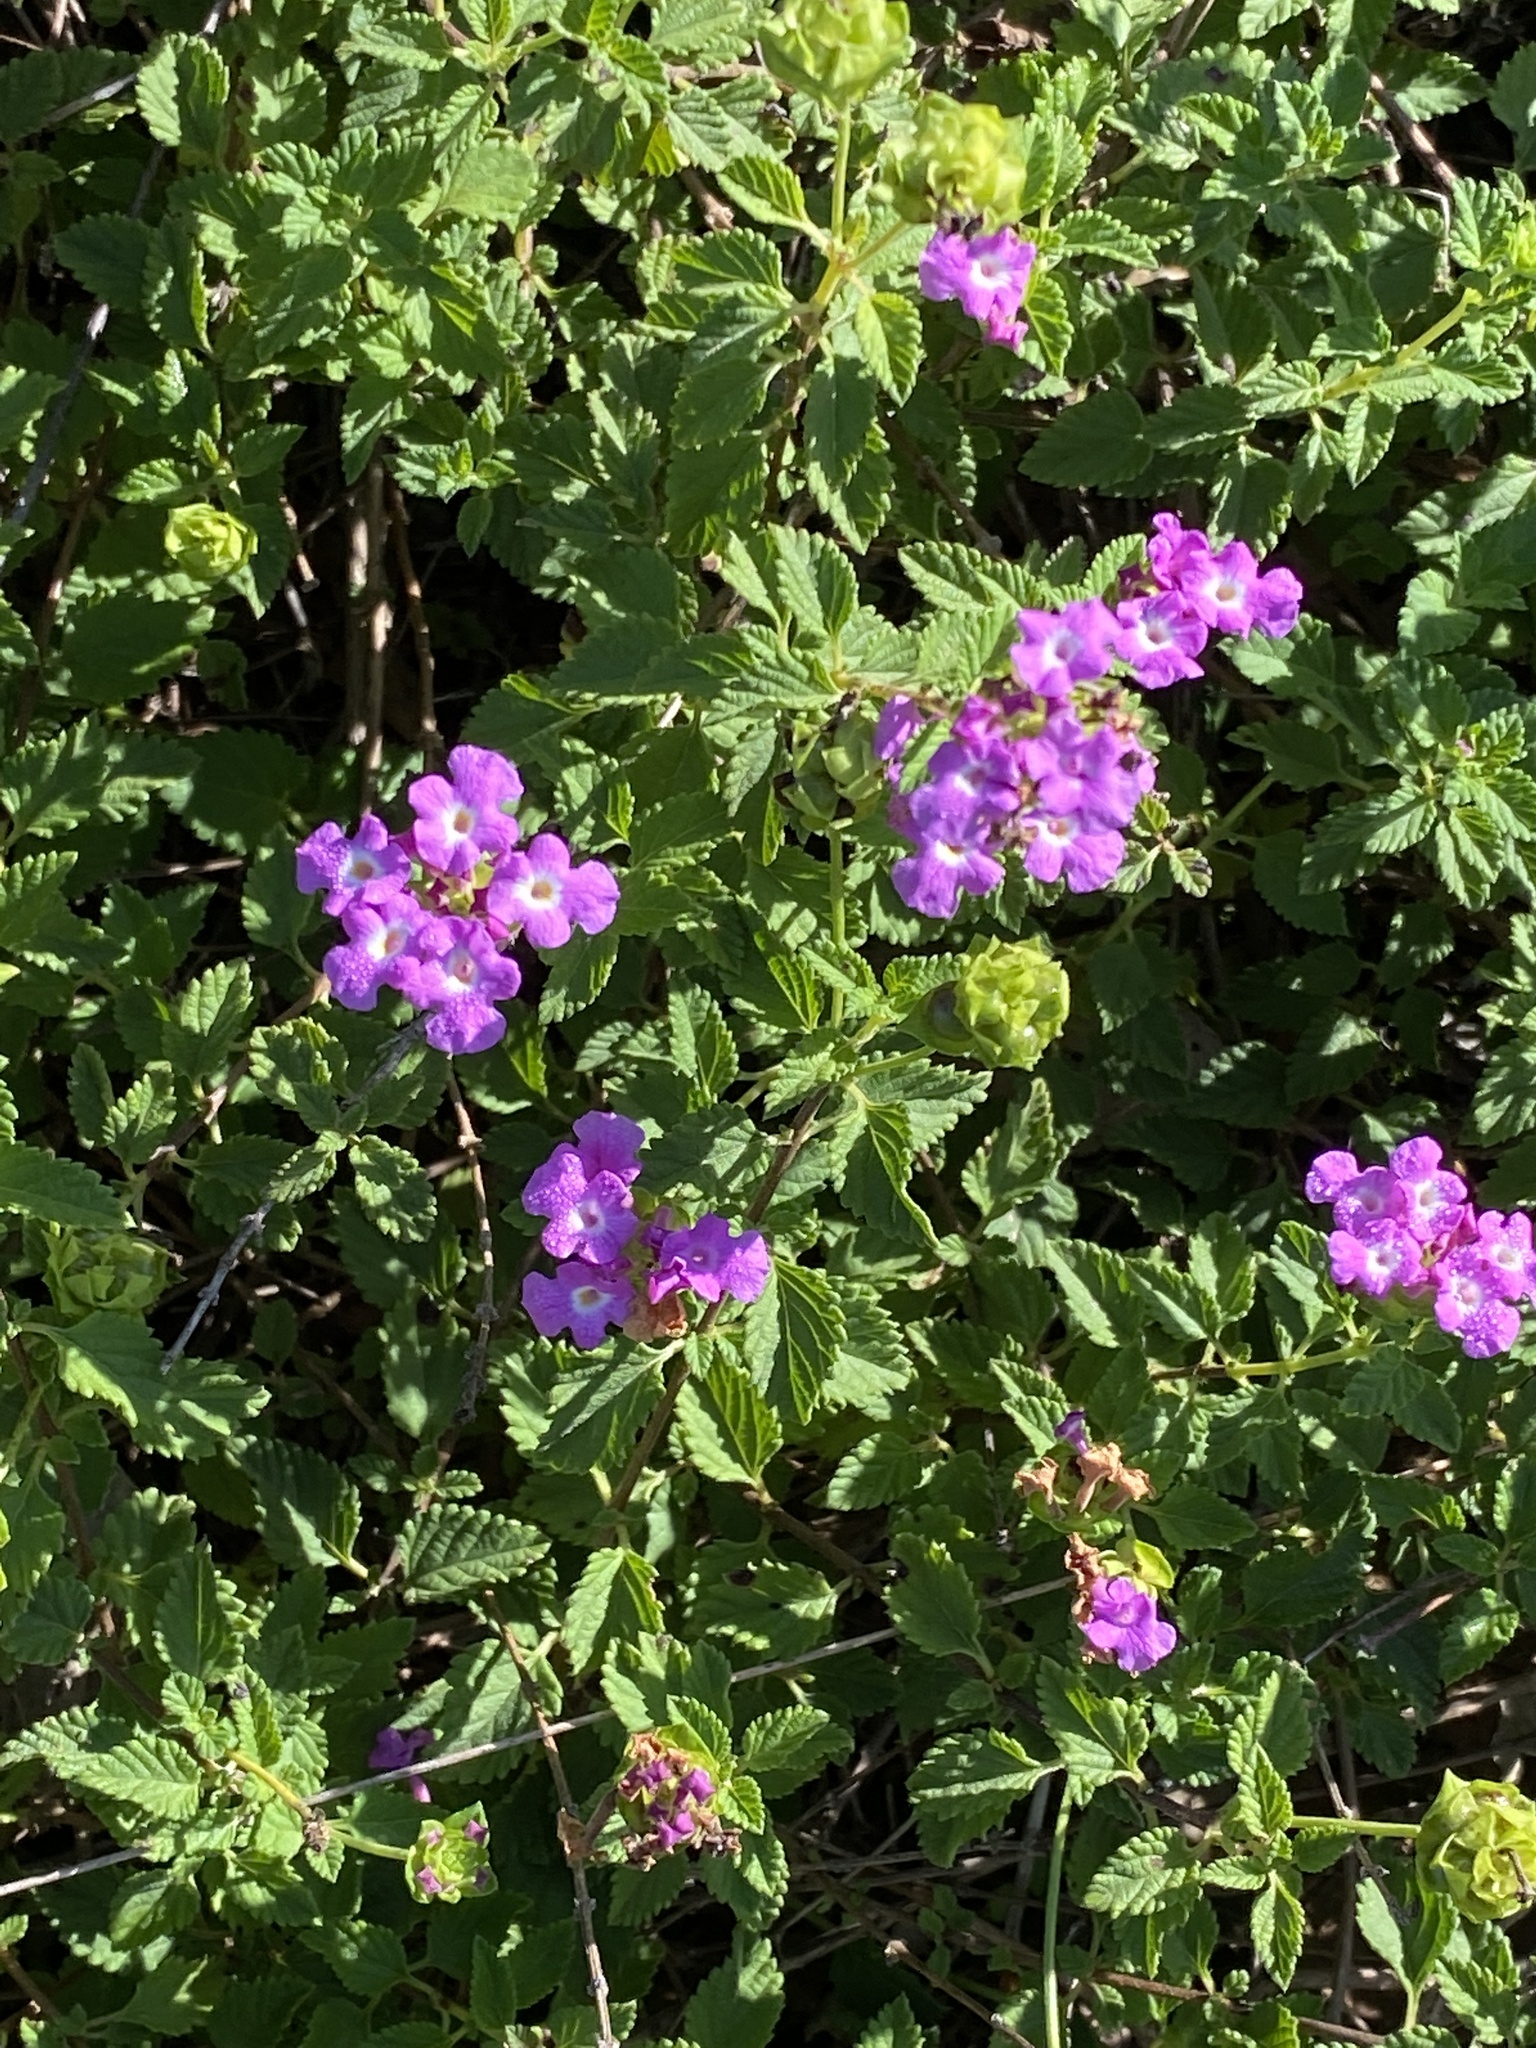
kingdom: Plantae
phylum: Tracheophyta
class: Magnoliopsida
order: Lamiales
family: Verbenaceae
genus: Lantana
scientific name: Lantana montevidensis
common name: Trailing shrubverbena
